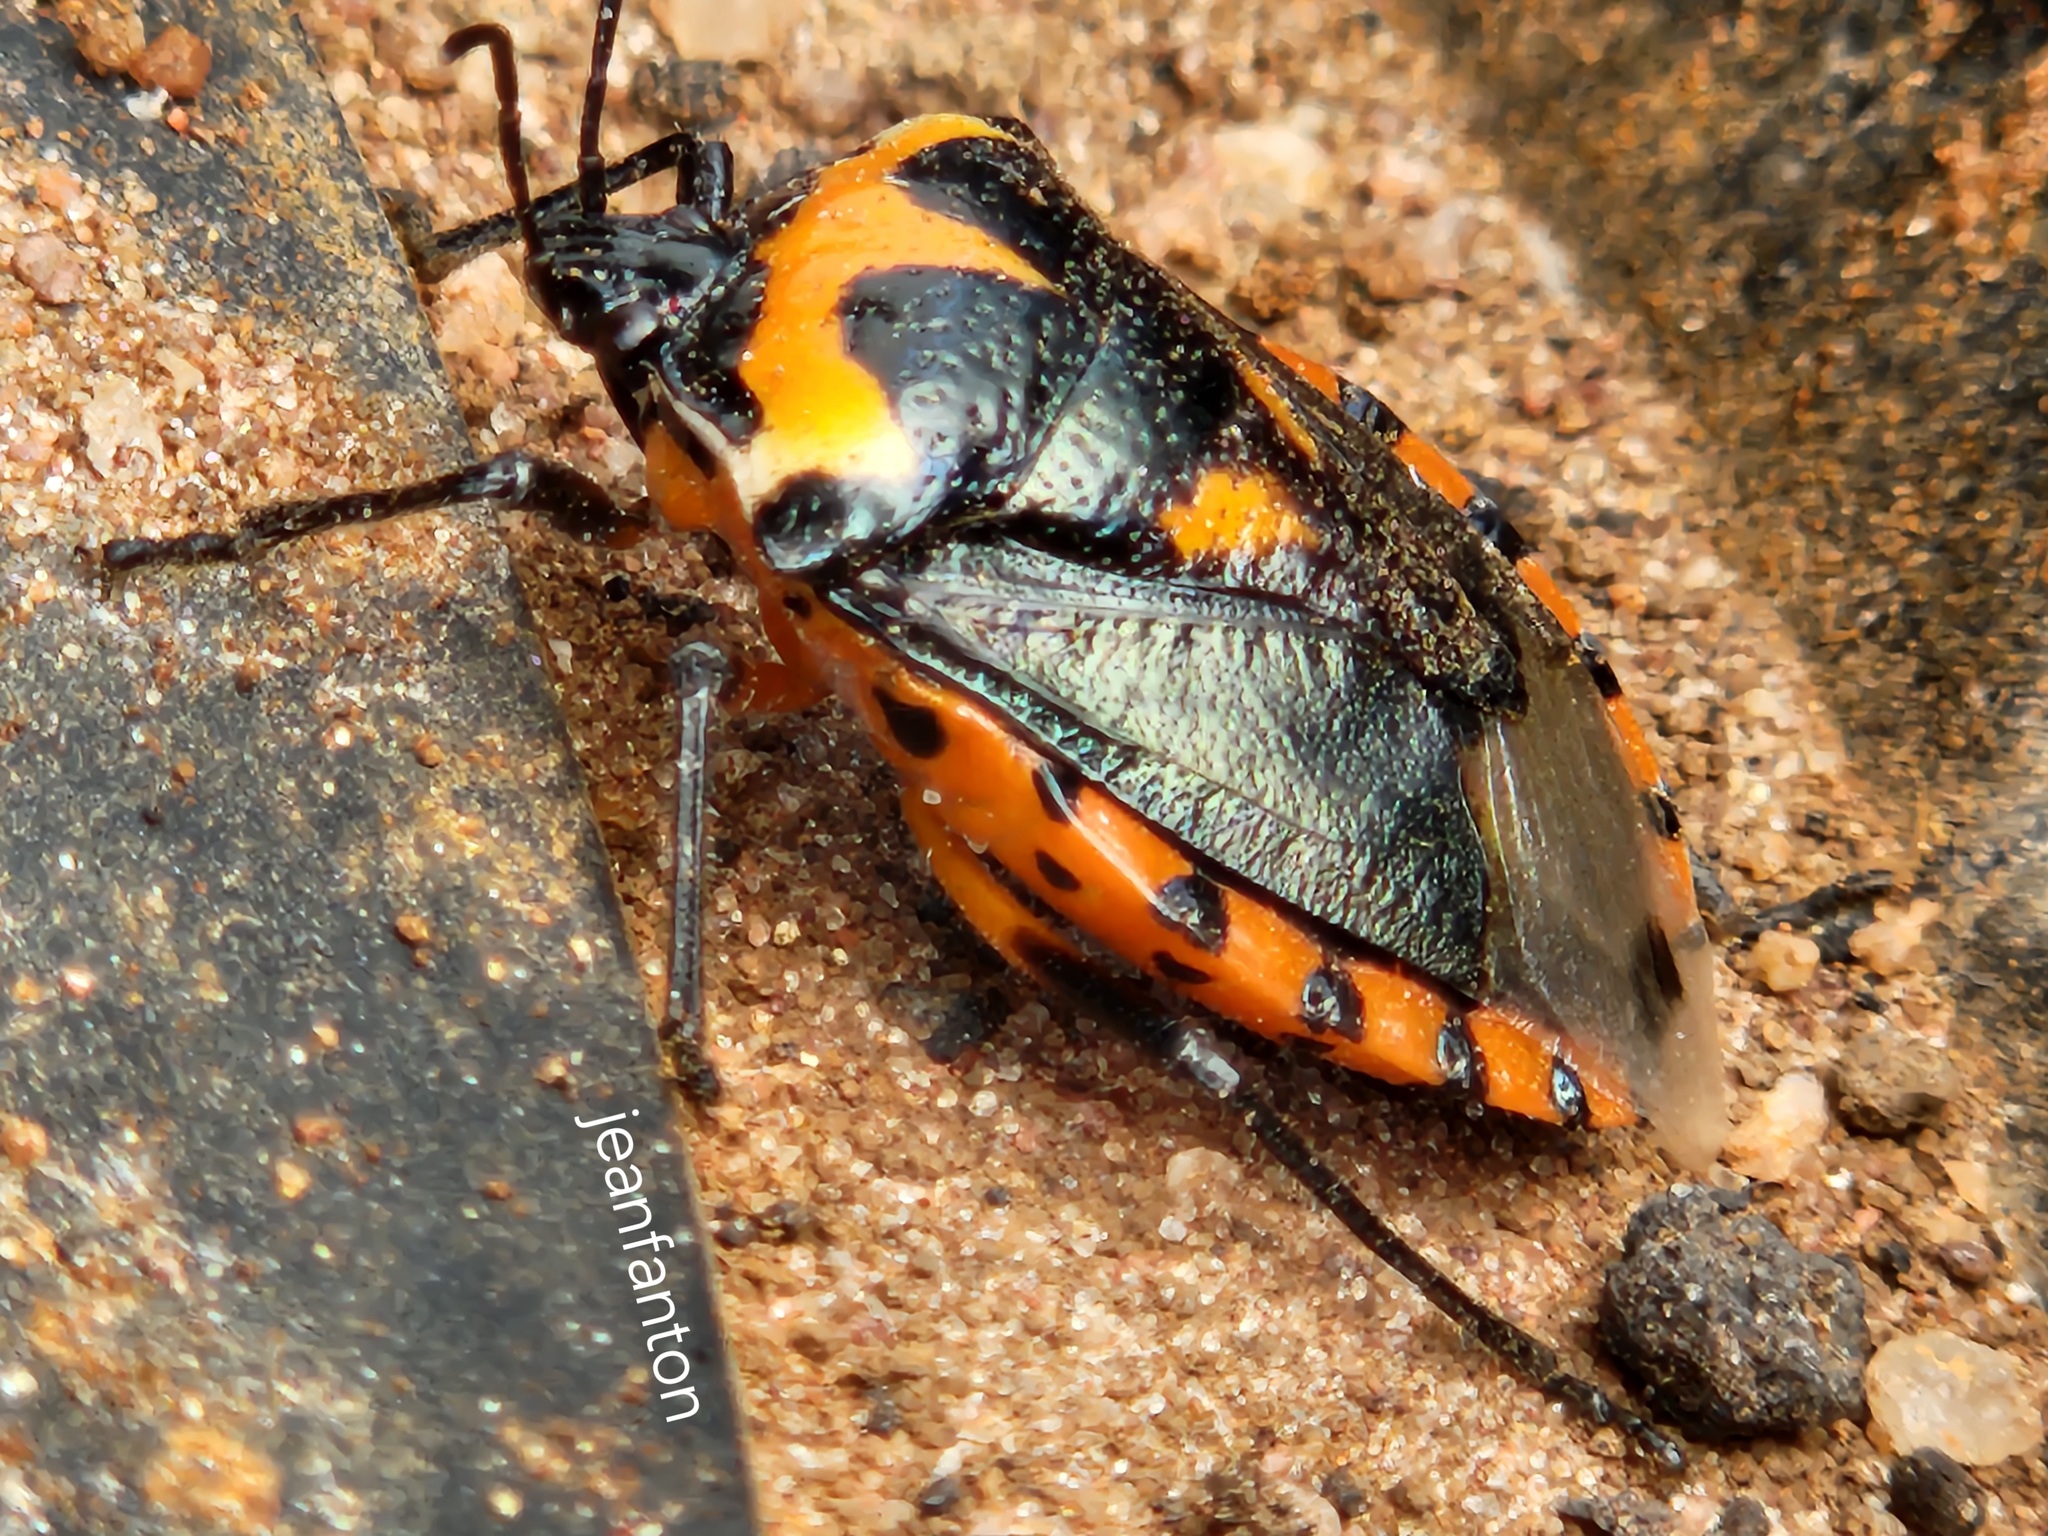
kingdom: Animalia
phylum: Arthropoda
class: Insecta
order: Hemiptera
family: Pentatomidae
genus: Vulsirea
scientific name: Vulsirea violacea
